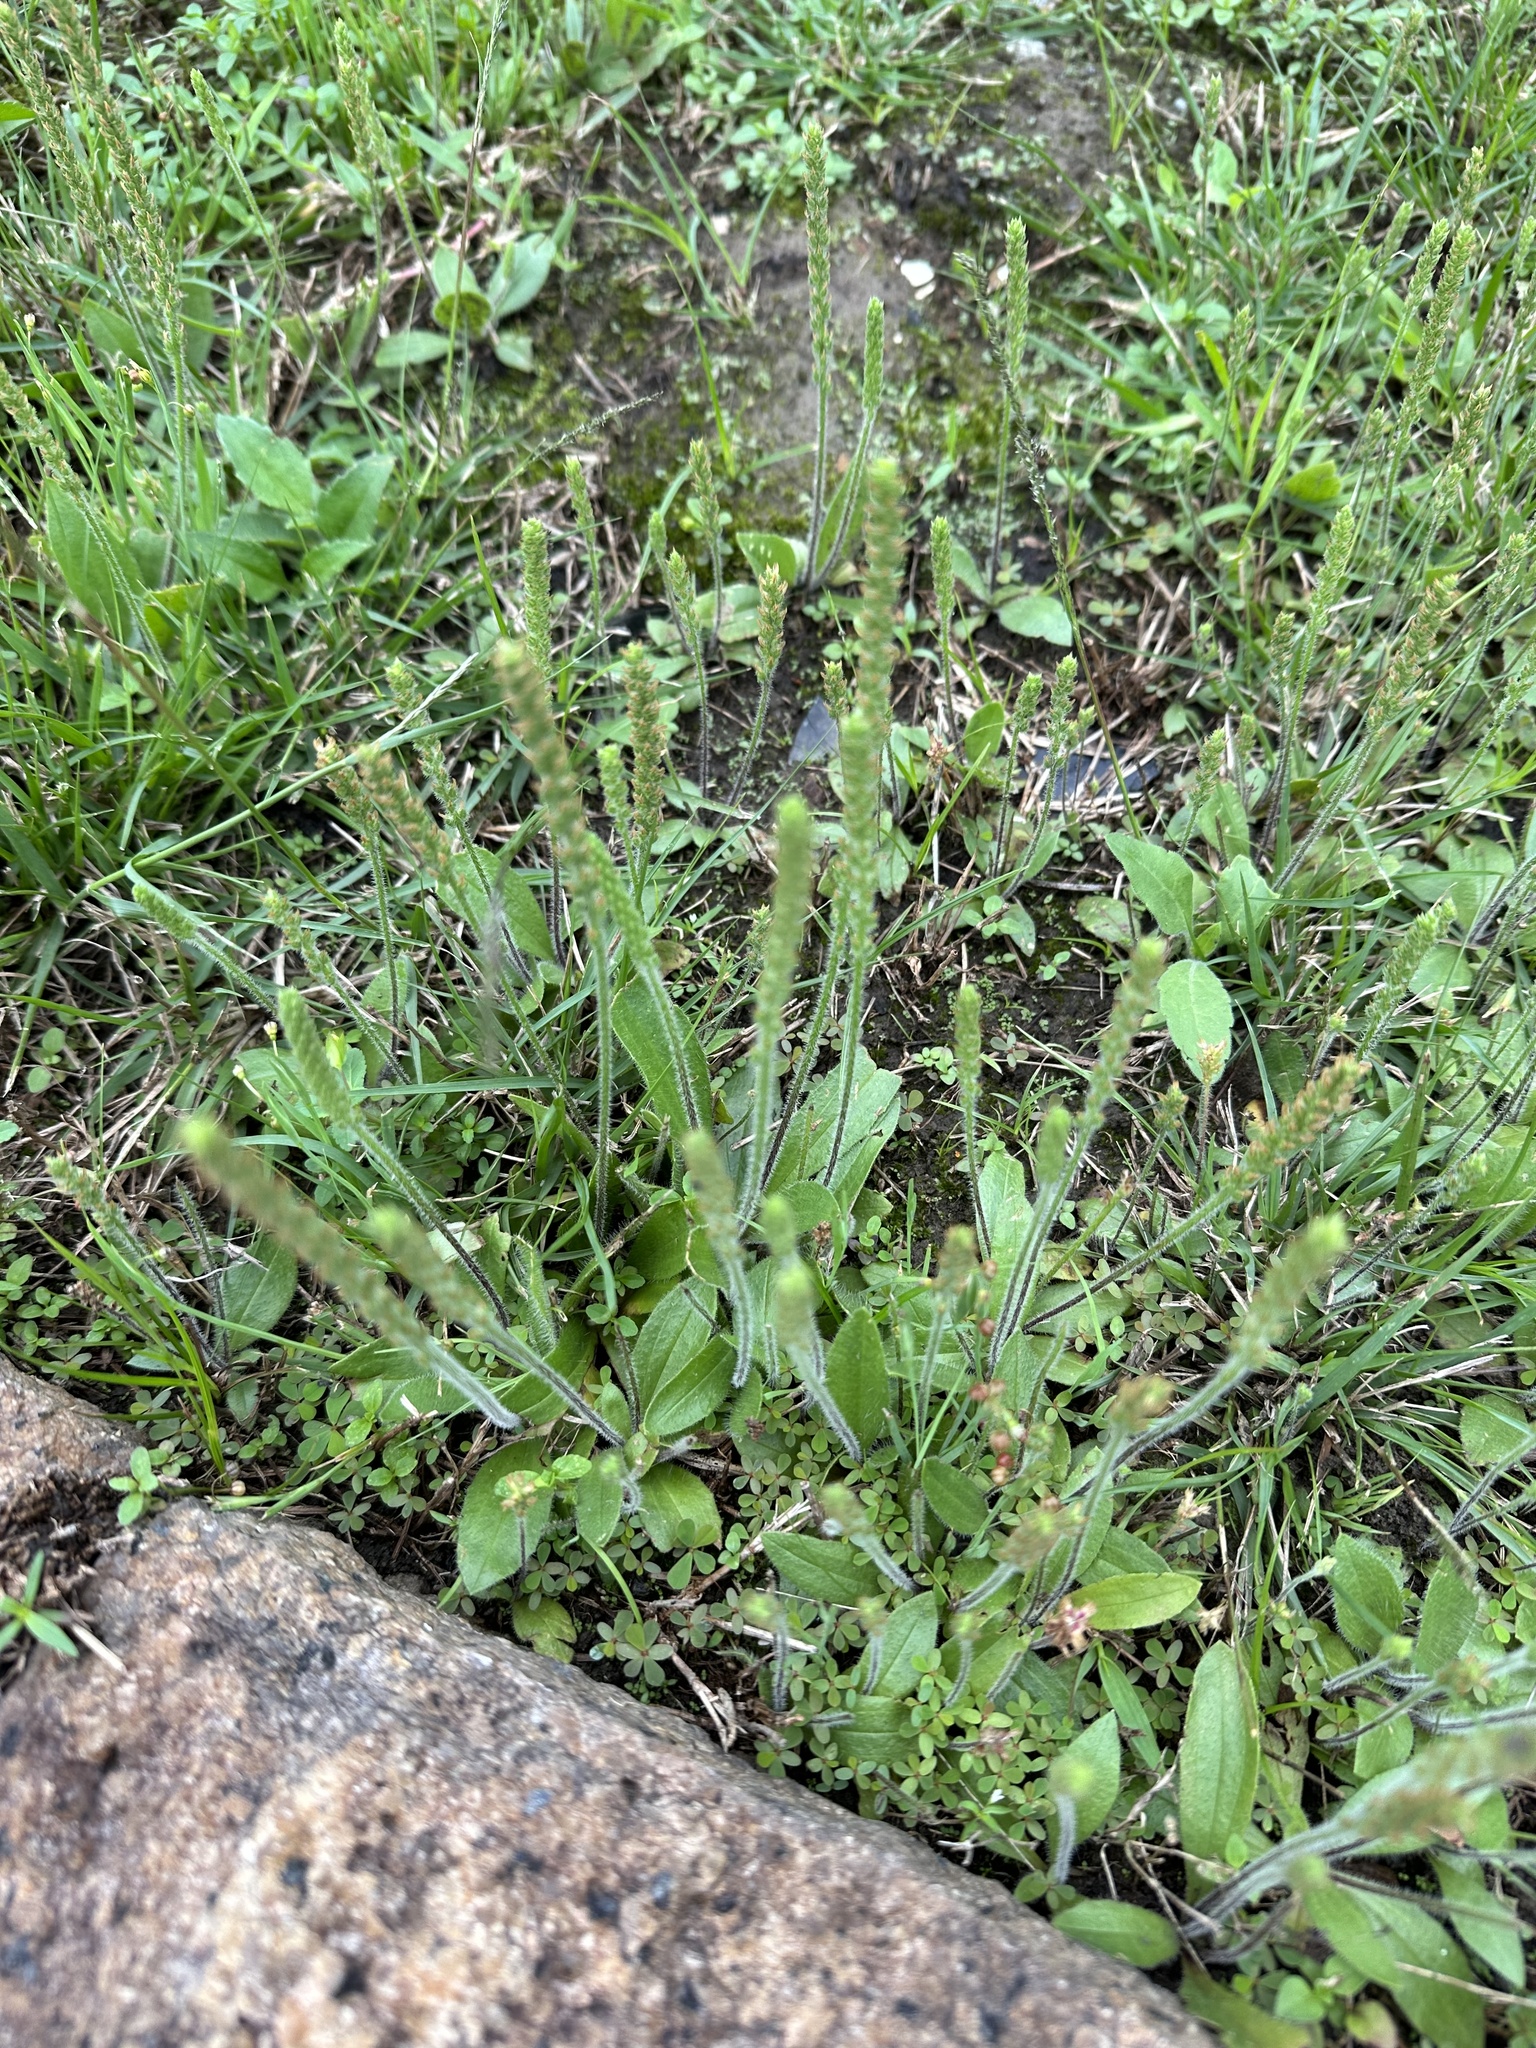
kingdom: Plantae
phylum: Tracheophyta
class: Magnoliopsida
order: Lamiales
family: Plantaginaceae
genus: Plantago
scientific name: Plantago virginica
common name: Hoary plantain
